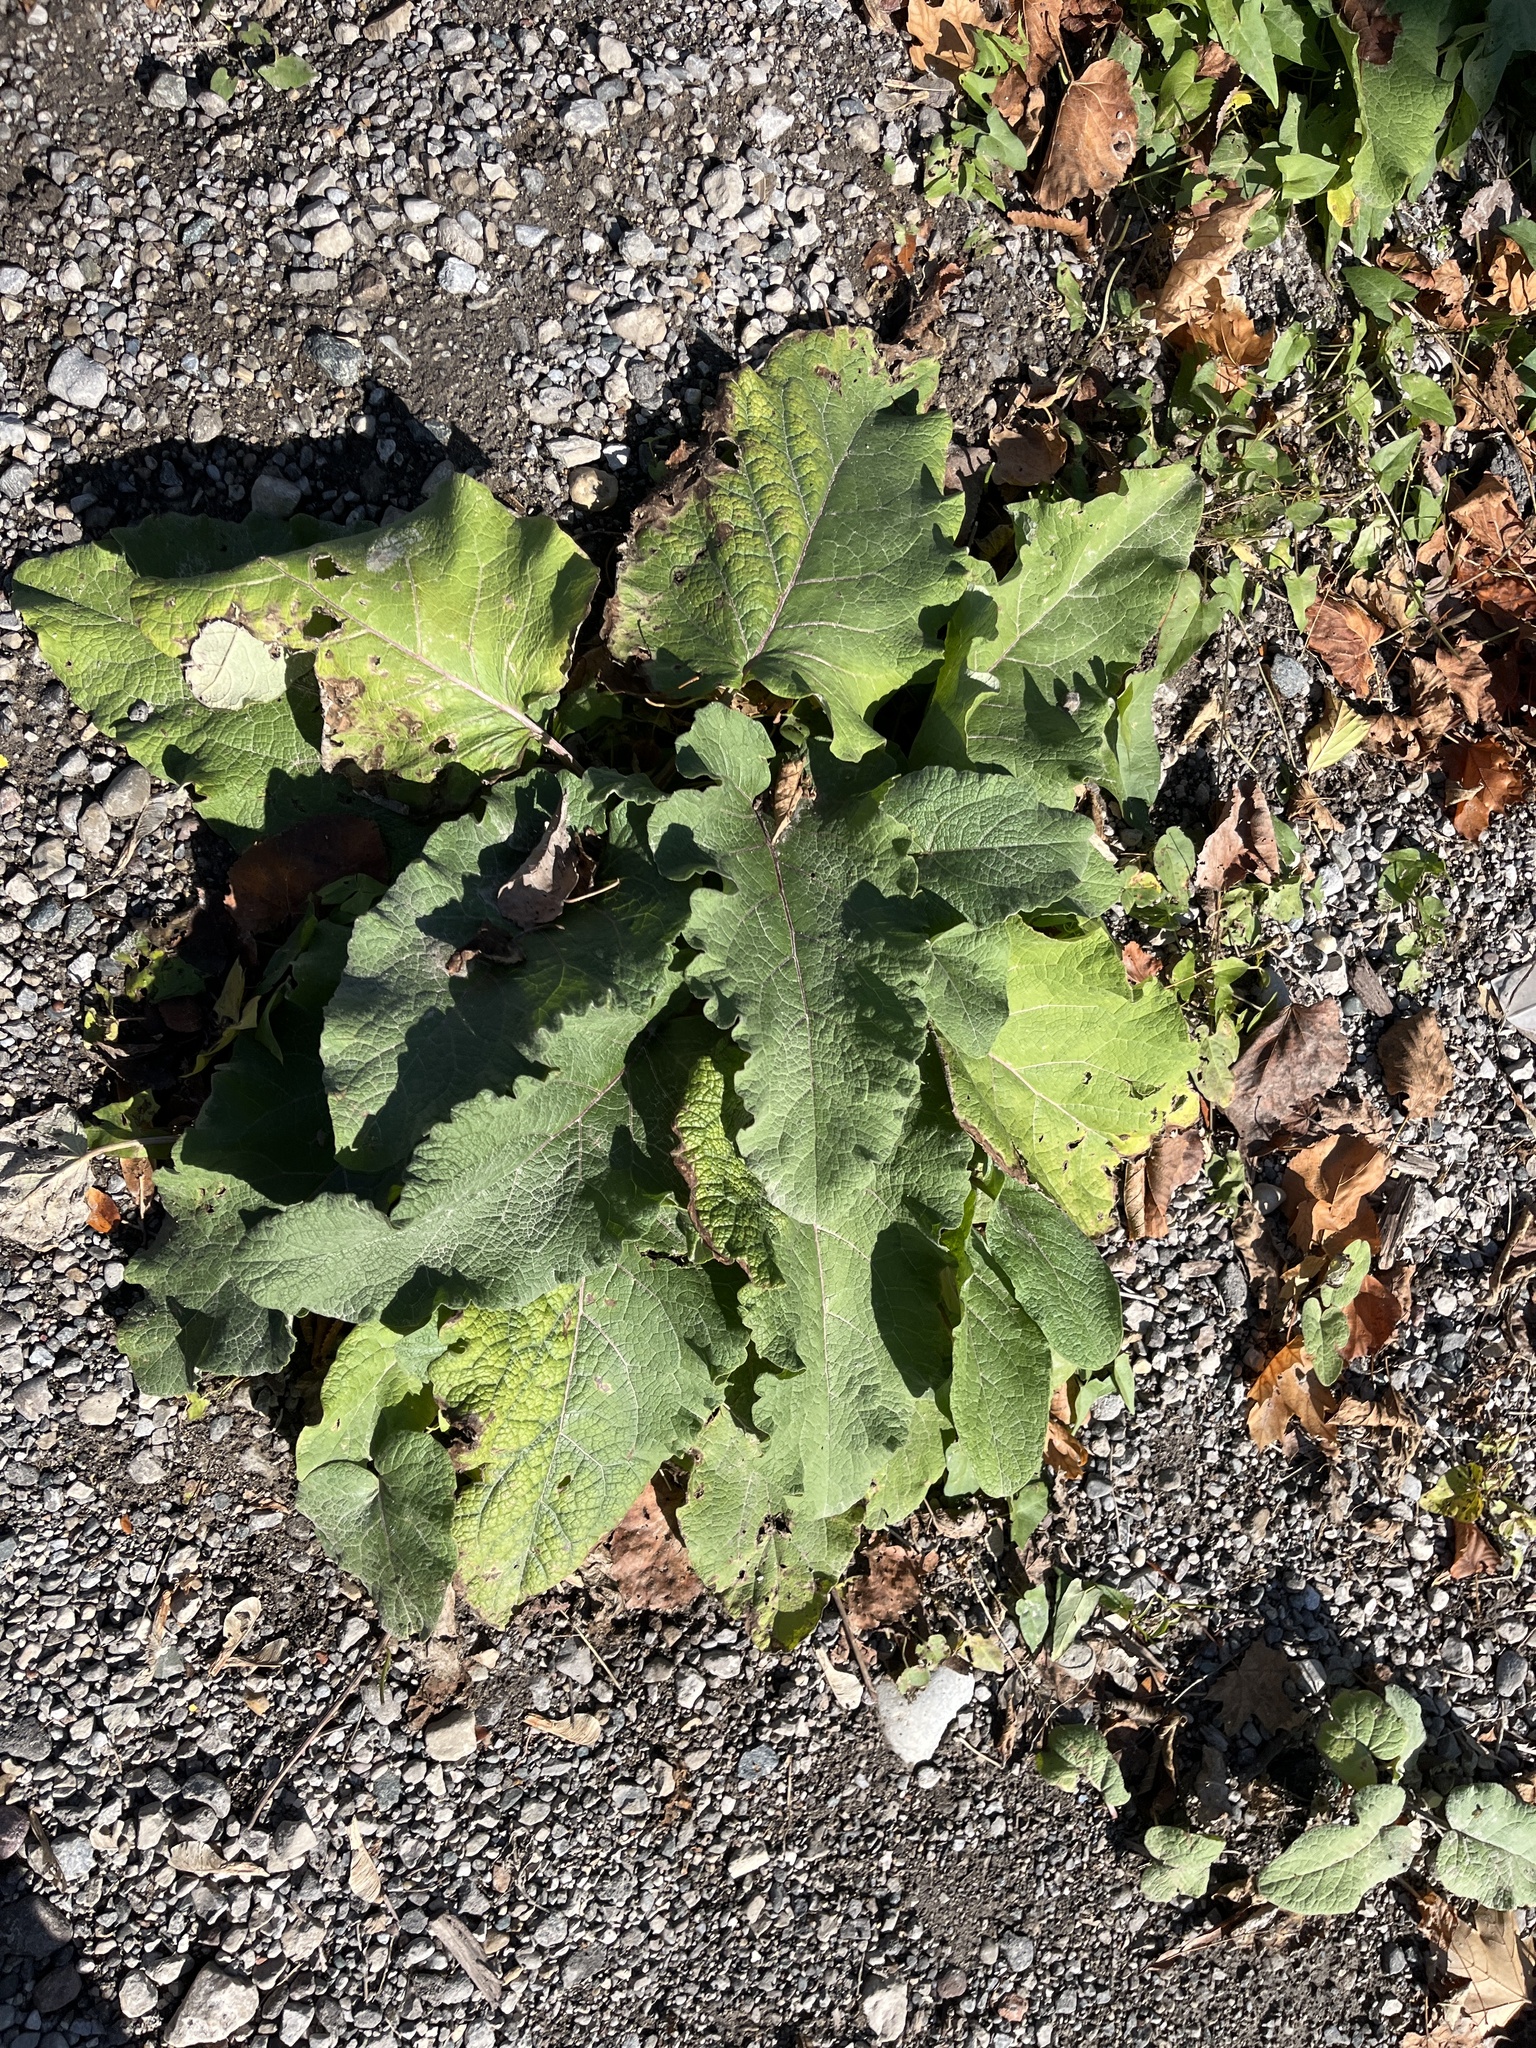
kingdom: Plantae
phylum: Tracheophyta
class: Magnoliopsida
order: Asterales
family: Asteraceae
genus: Arctium
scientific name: Arctium
